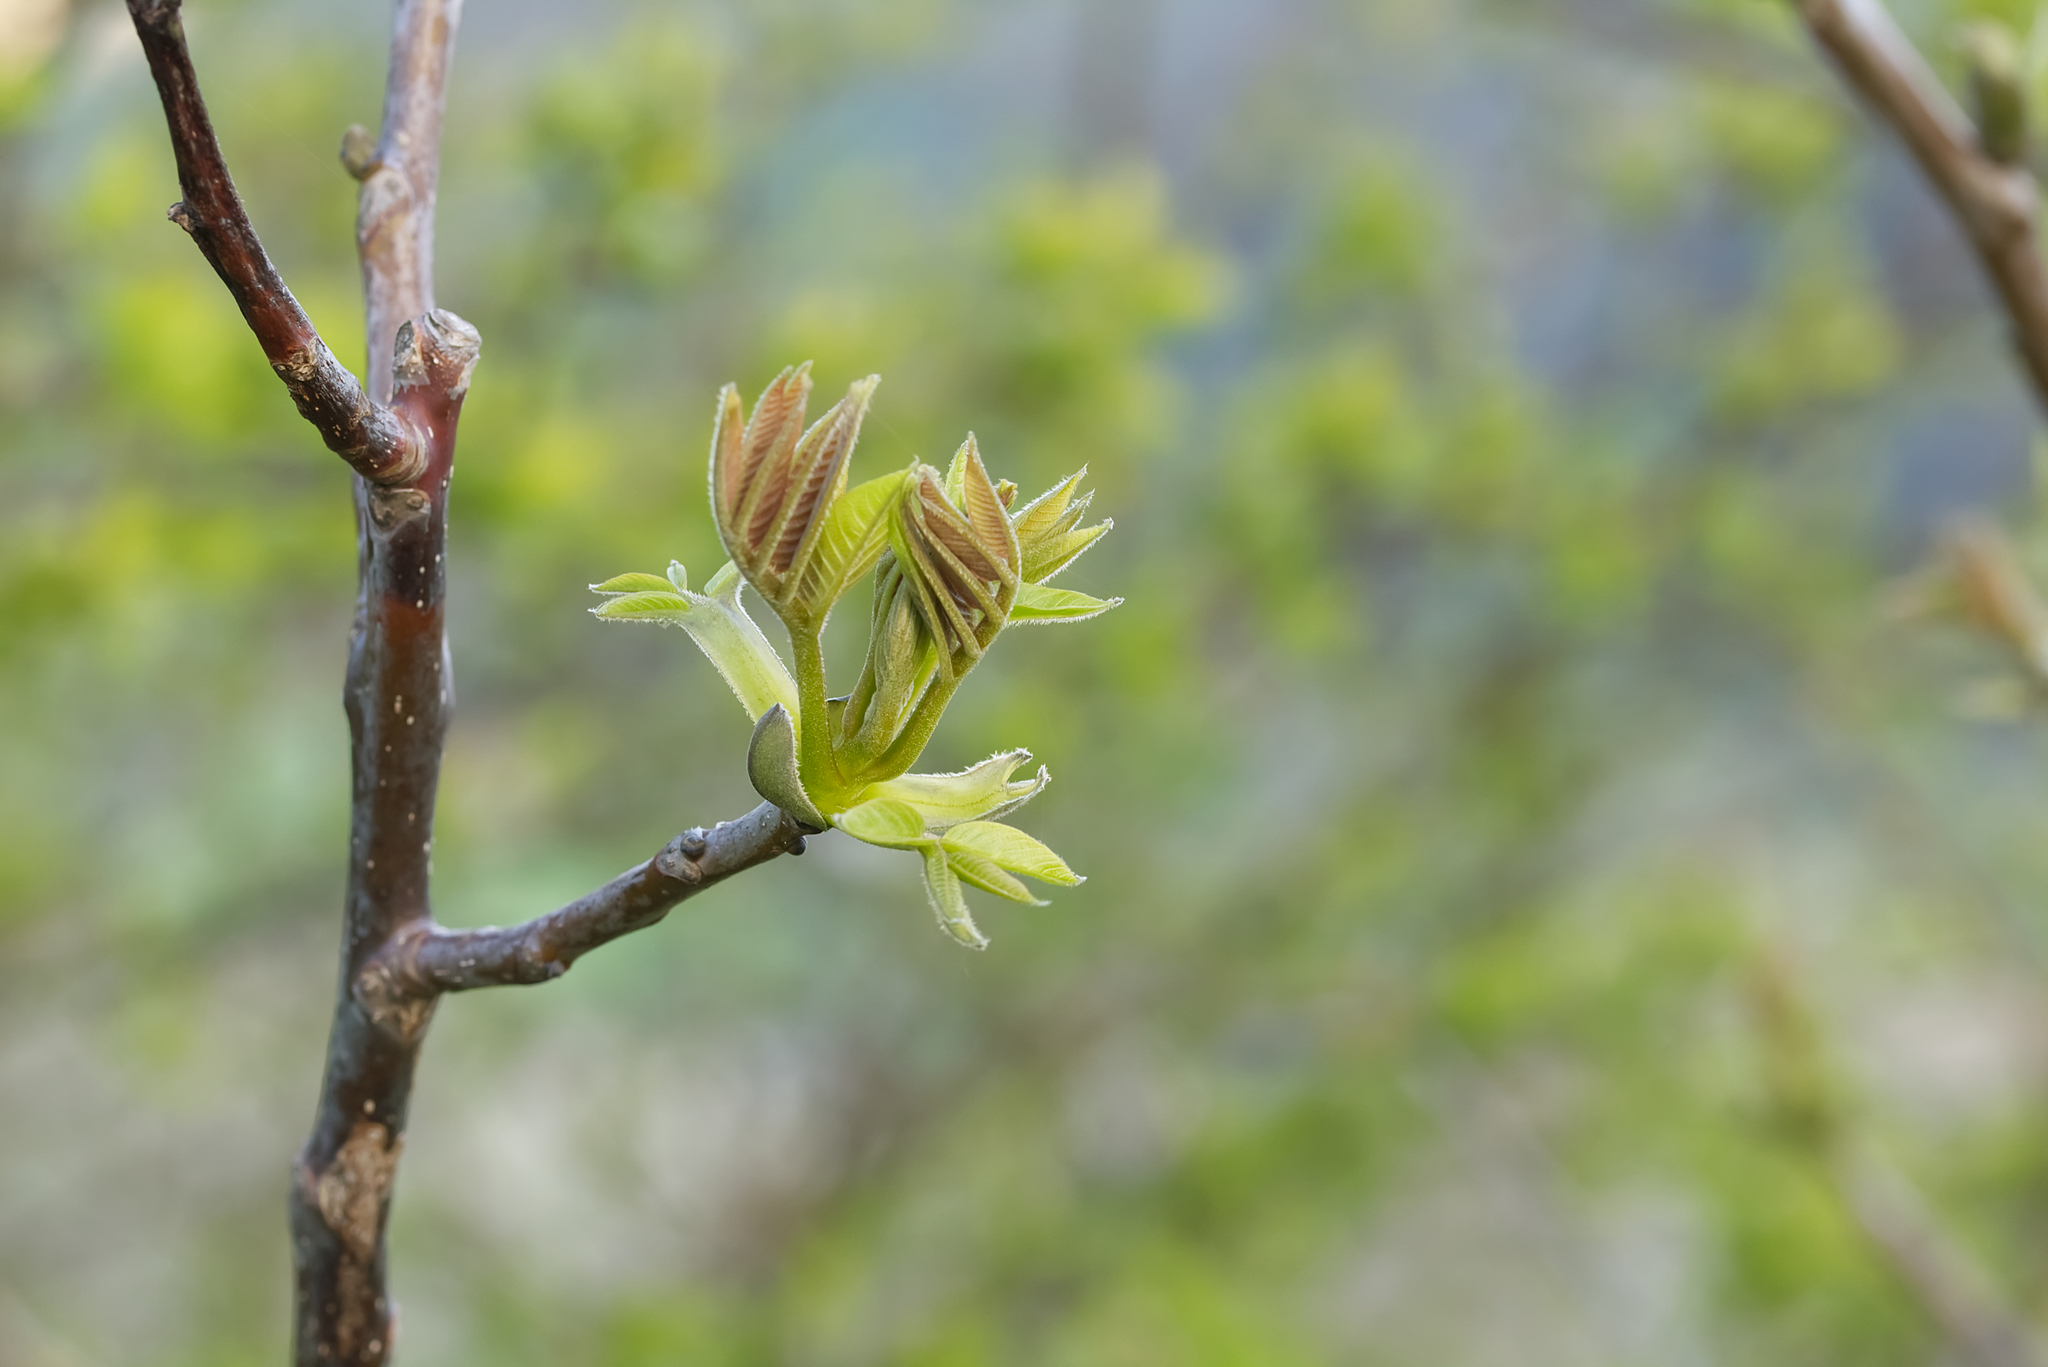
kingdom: Plantae
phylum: Tracheophyta
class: Magnoliopsida
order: Fagales
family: Juglandaceae
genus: Juglans
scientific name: Juglans regia
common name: Walnut
